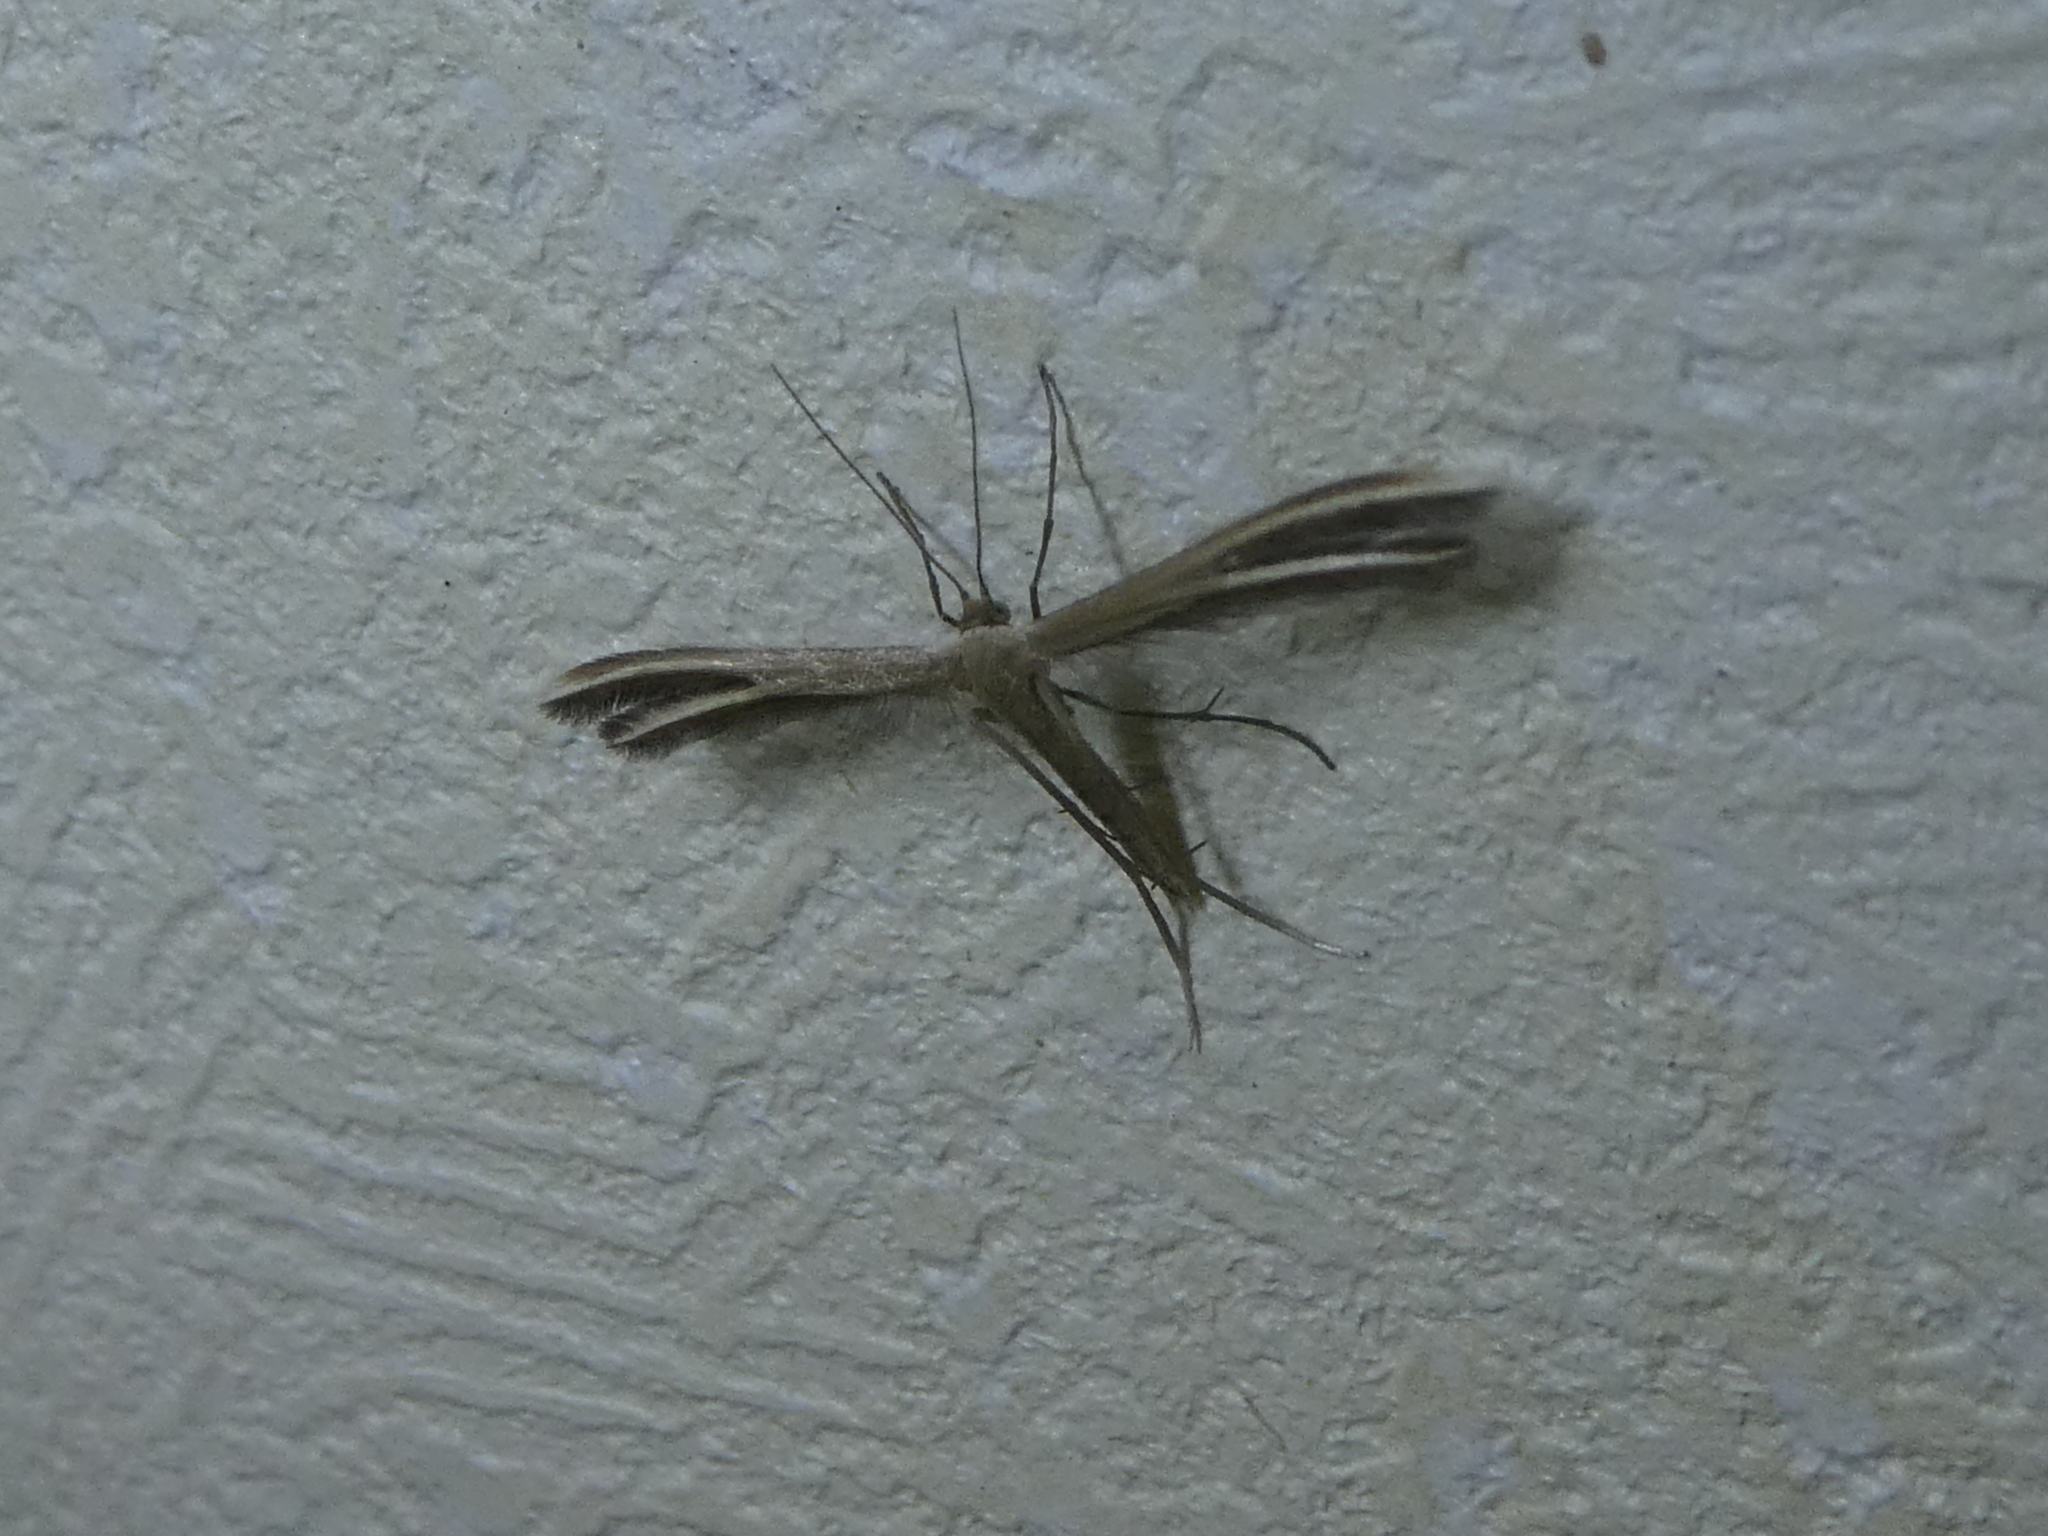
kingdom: Animalia
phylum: Arthropoda
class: Insecta
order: Lepidoptera
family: Pterophoridae
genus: Pterophorus
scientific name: Pterophorus innotatalis
